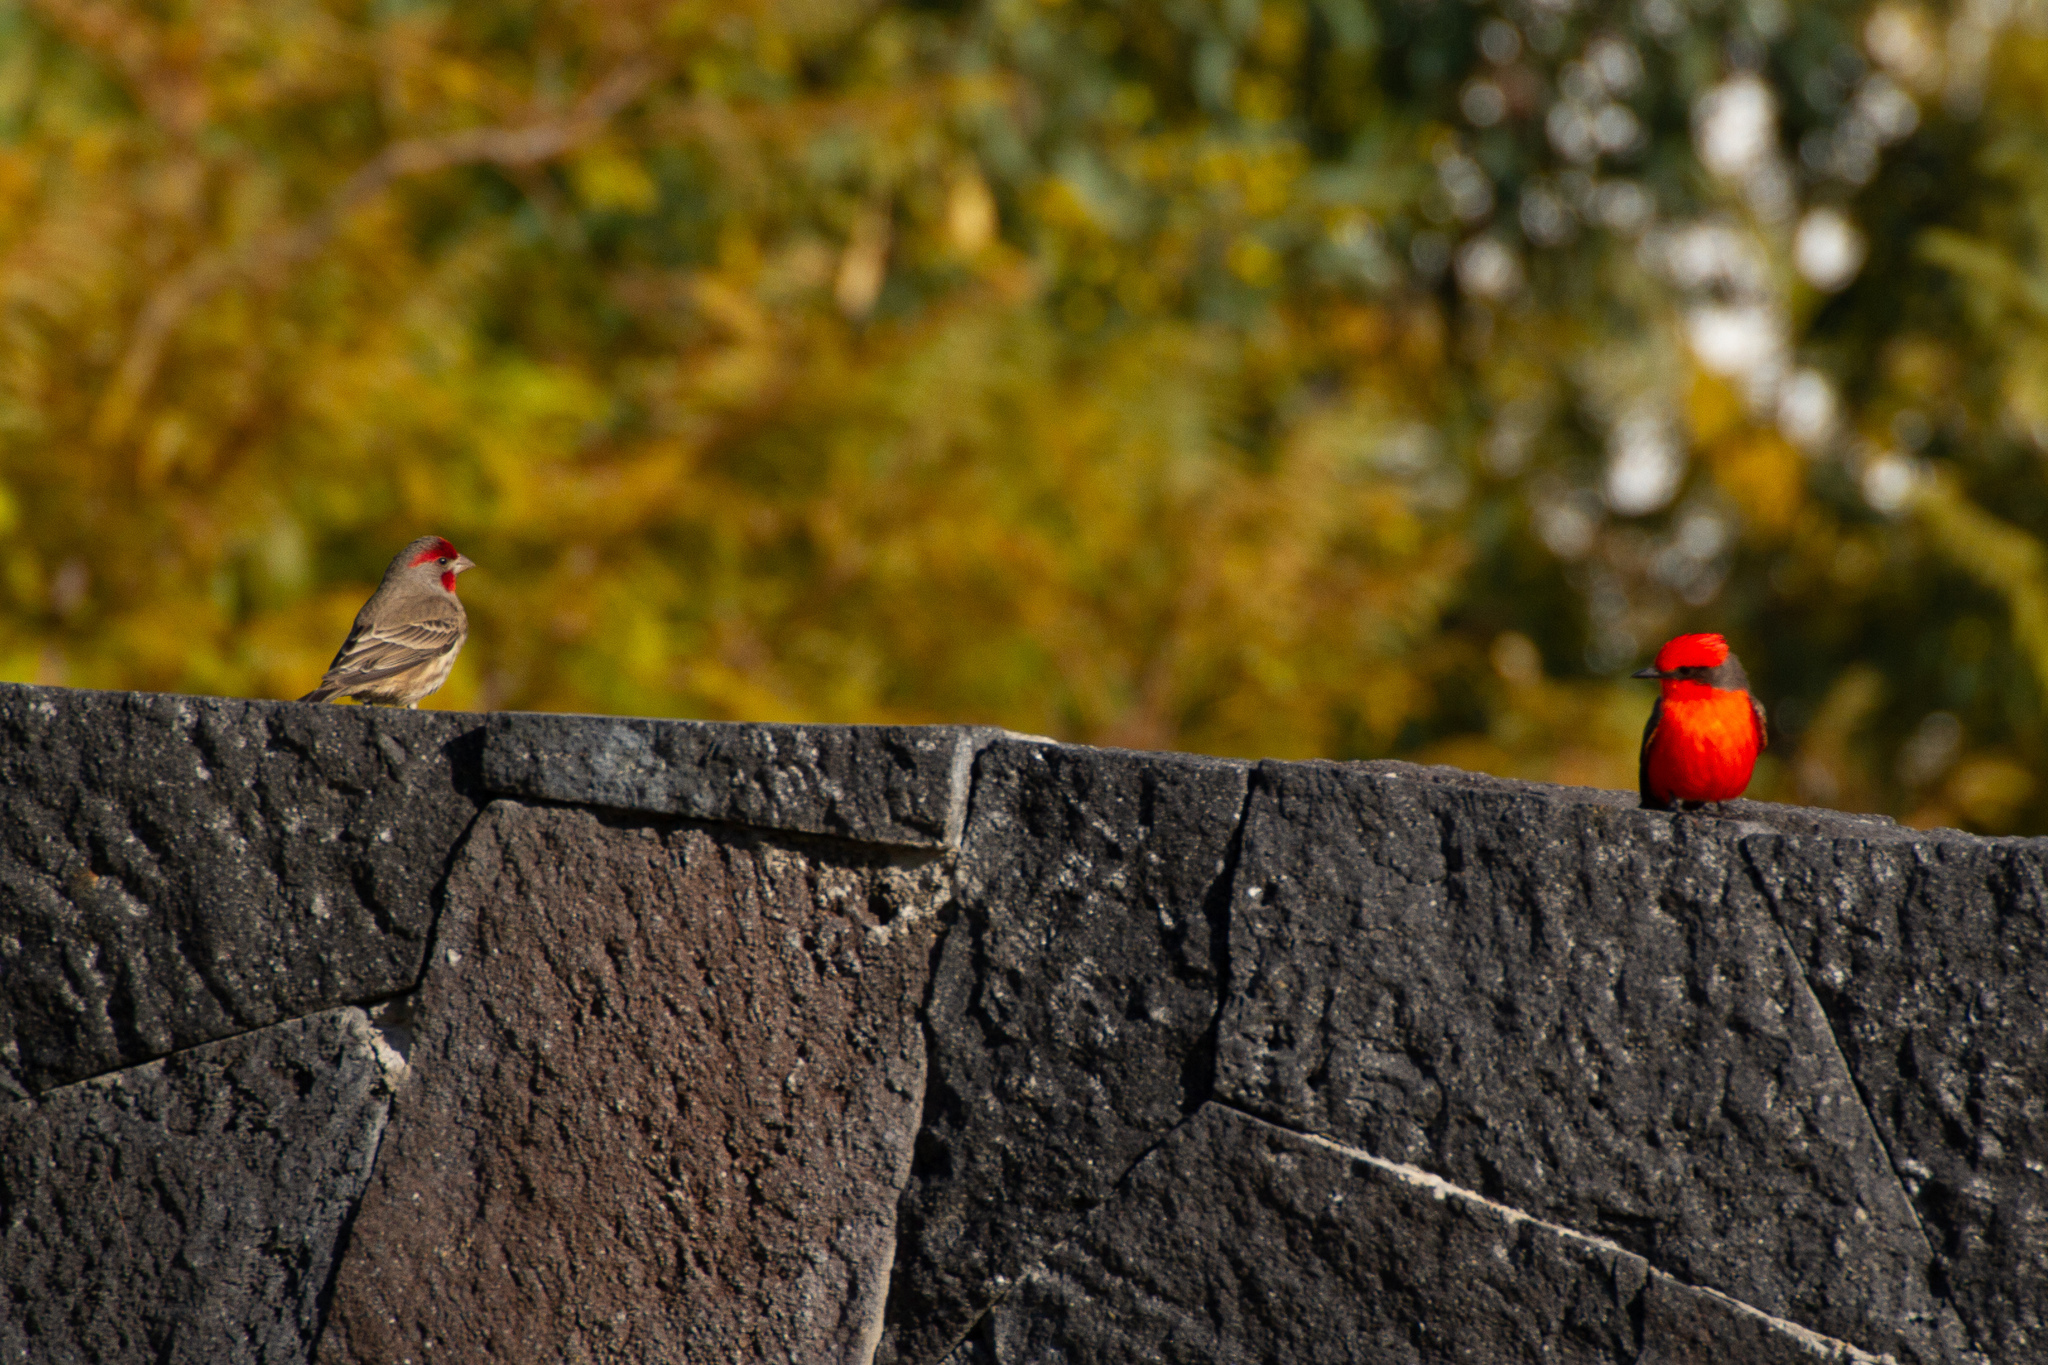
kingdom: Animalia
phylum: Chordata
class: Aves
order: Passeriformes
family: Fringillidae
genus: Haemorhous
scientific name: Haemorhous mexicanus
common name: House finch
